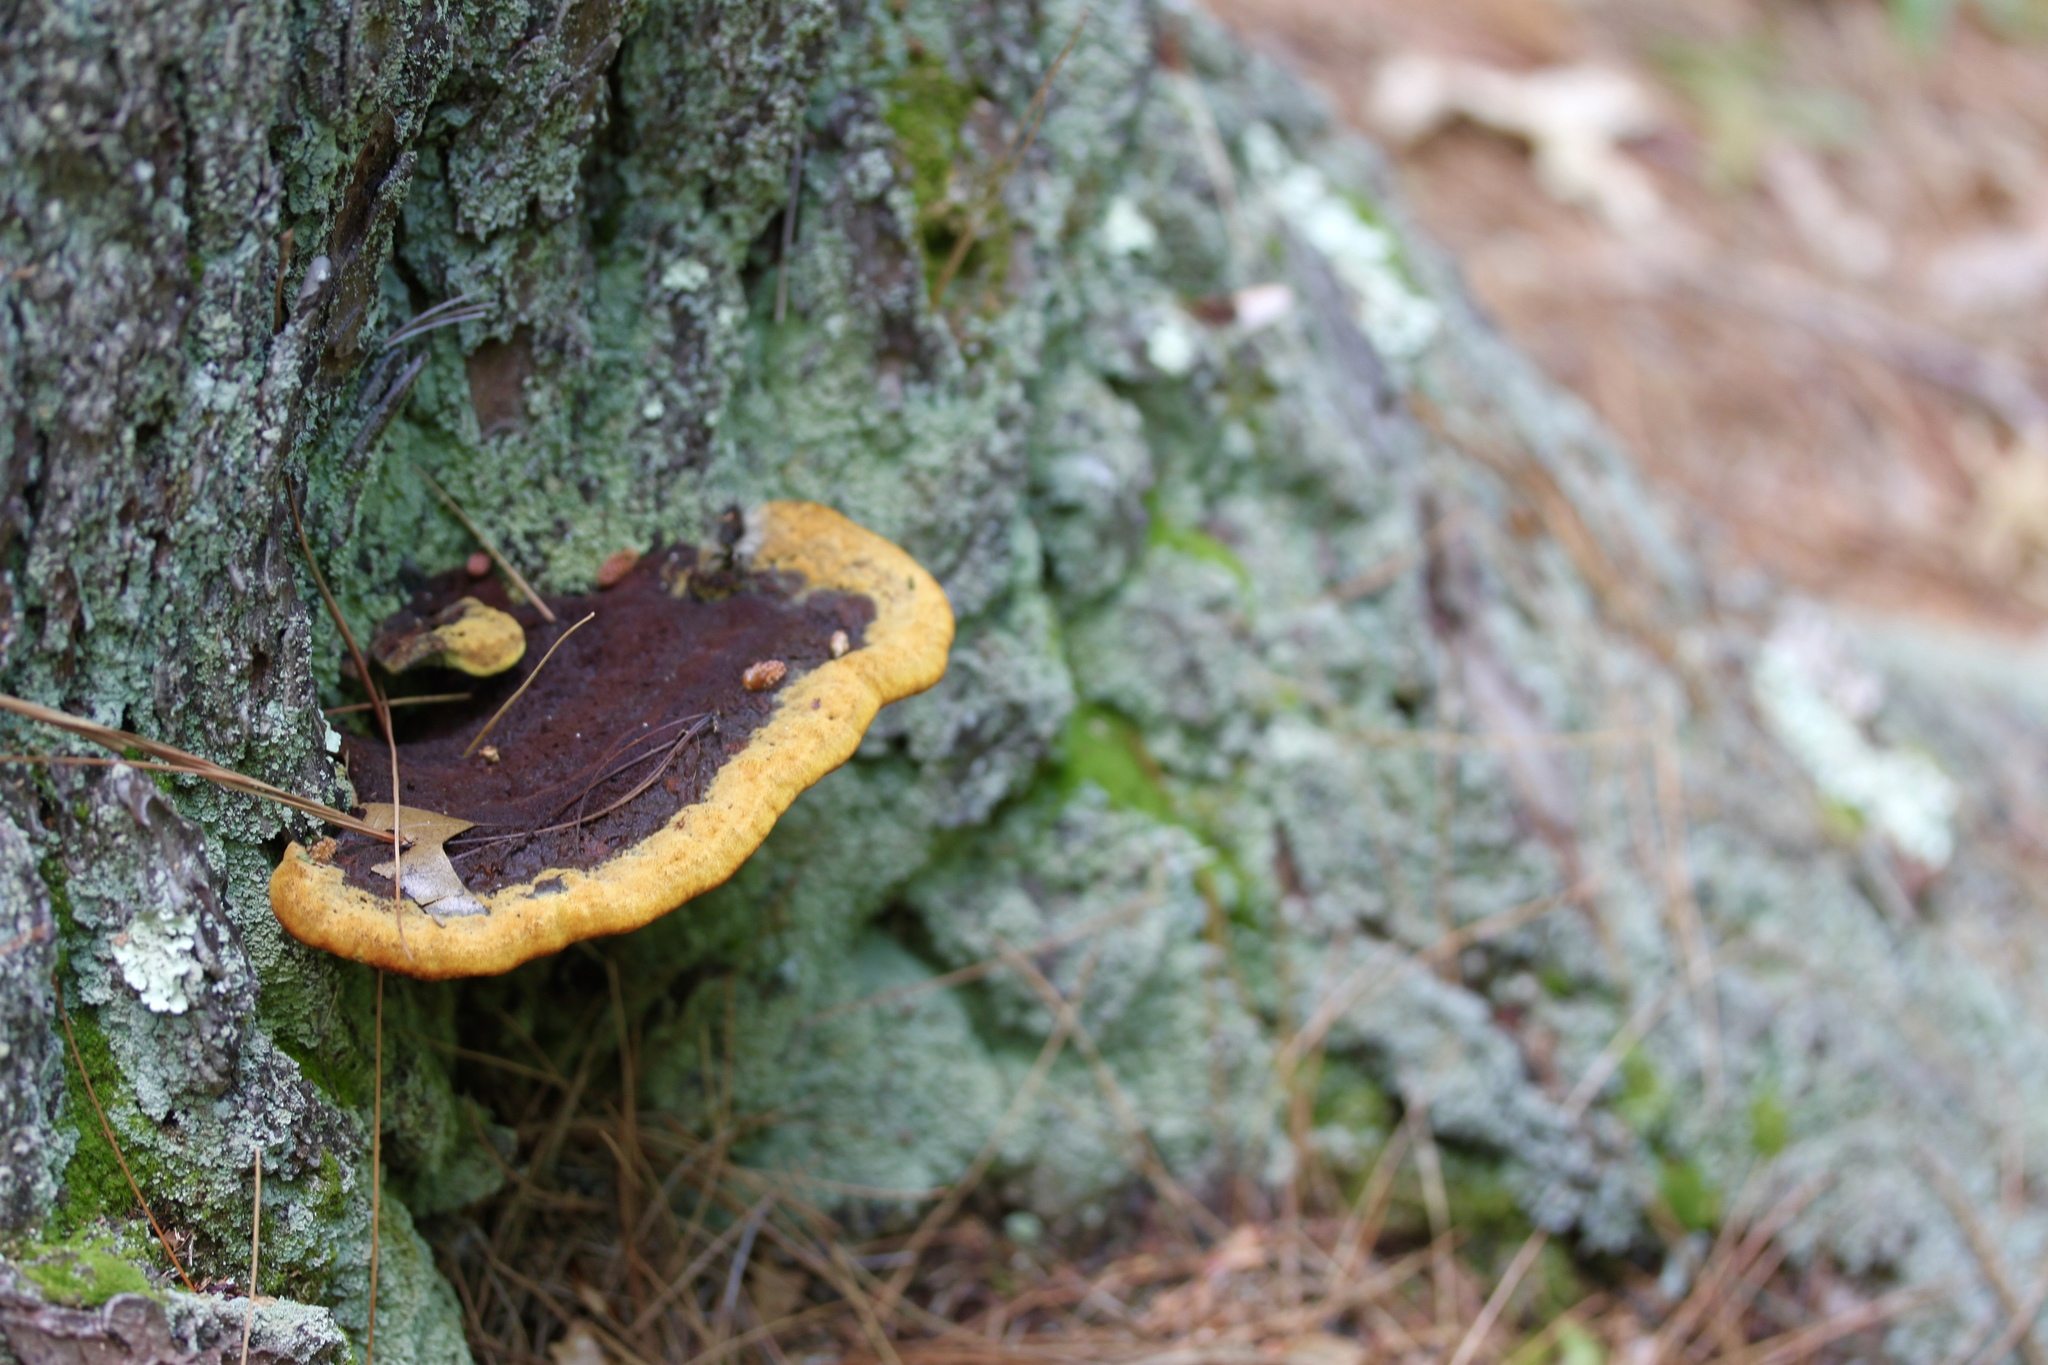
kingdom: Fungi
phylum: Basidiomycota
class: Agaricomycetes
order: Hymenochaetales
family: Hymenochaetaceae
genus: Phellinus
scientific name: Phellinus gilvus
